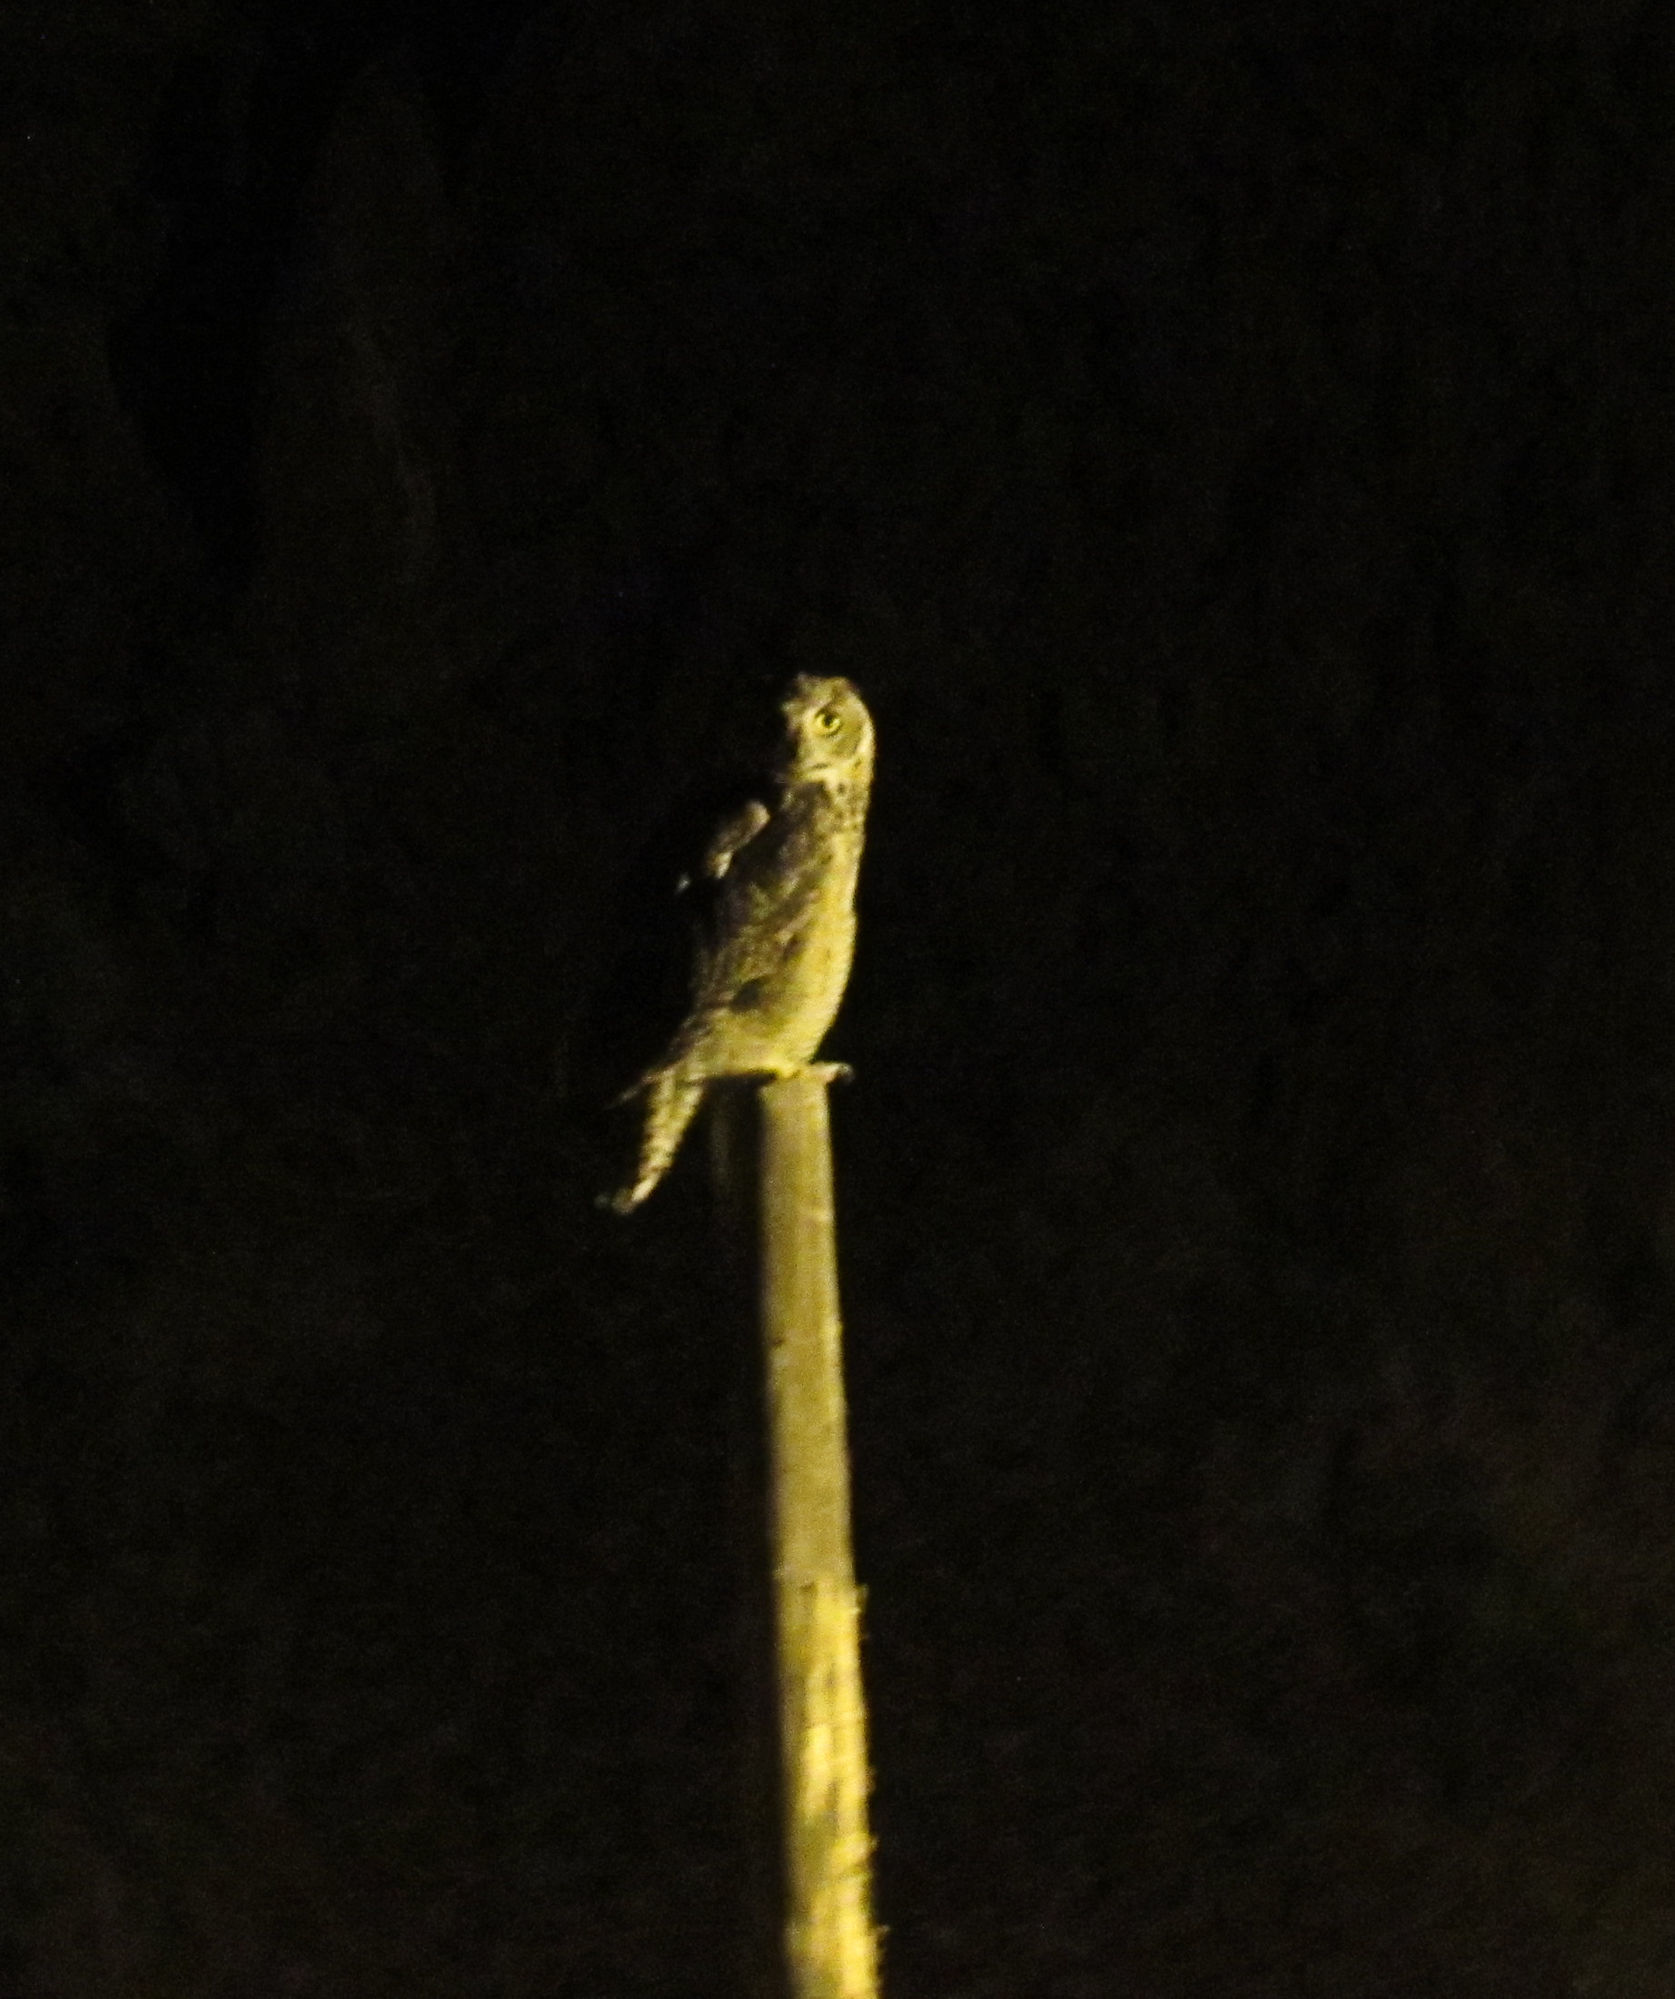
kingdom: Animalia
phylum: Chordata
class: Aves
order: Strigiformes
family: Strigidae
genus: Bubo
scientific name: Bubo virginianus
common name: Great horned owl
